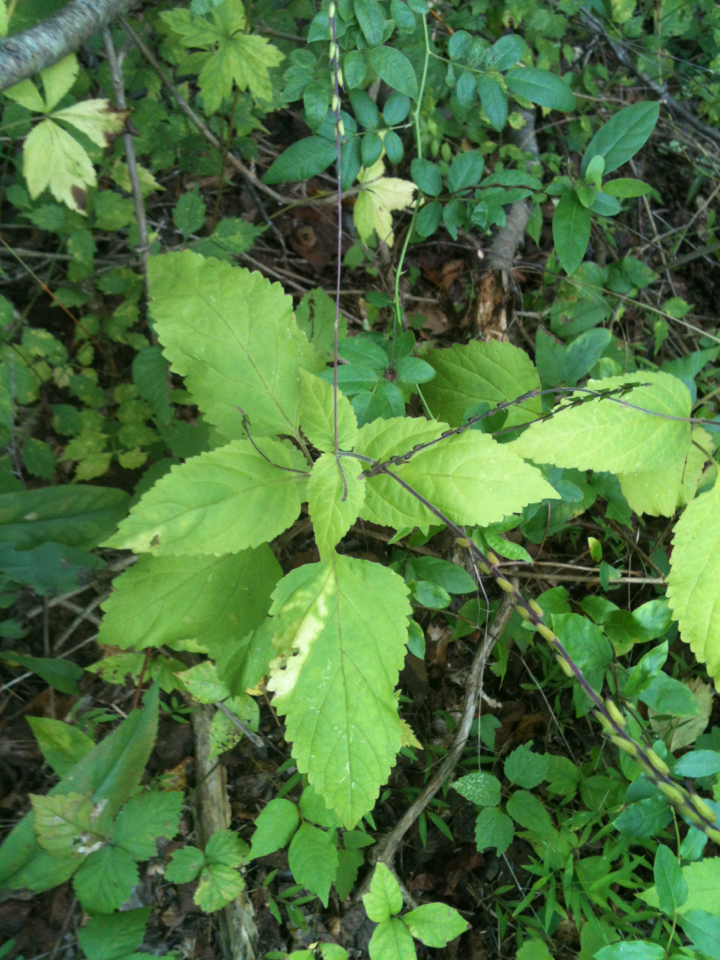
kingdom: Plantae
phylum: Tracheophyta
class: Magnoliopsida
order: Lamiales
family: Phrymaceae
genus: Phryma
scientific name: Phryma leptostachya
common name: American lopseed
